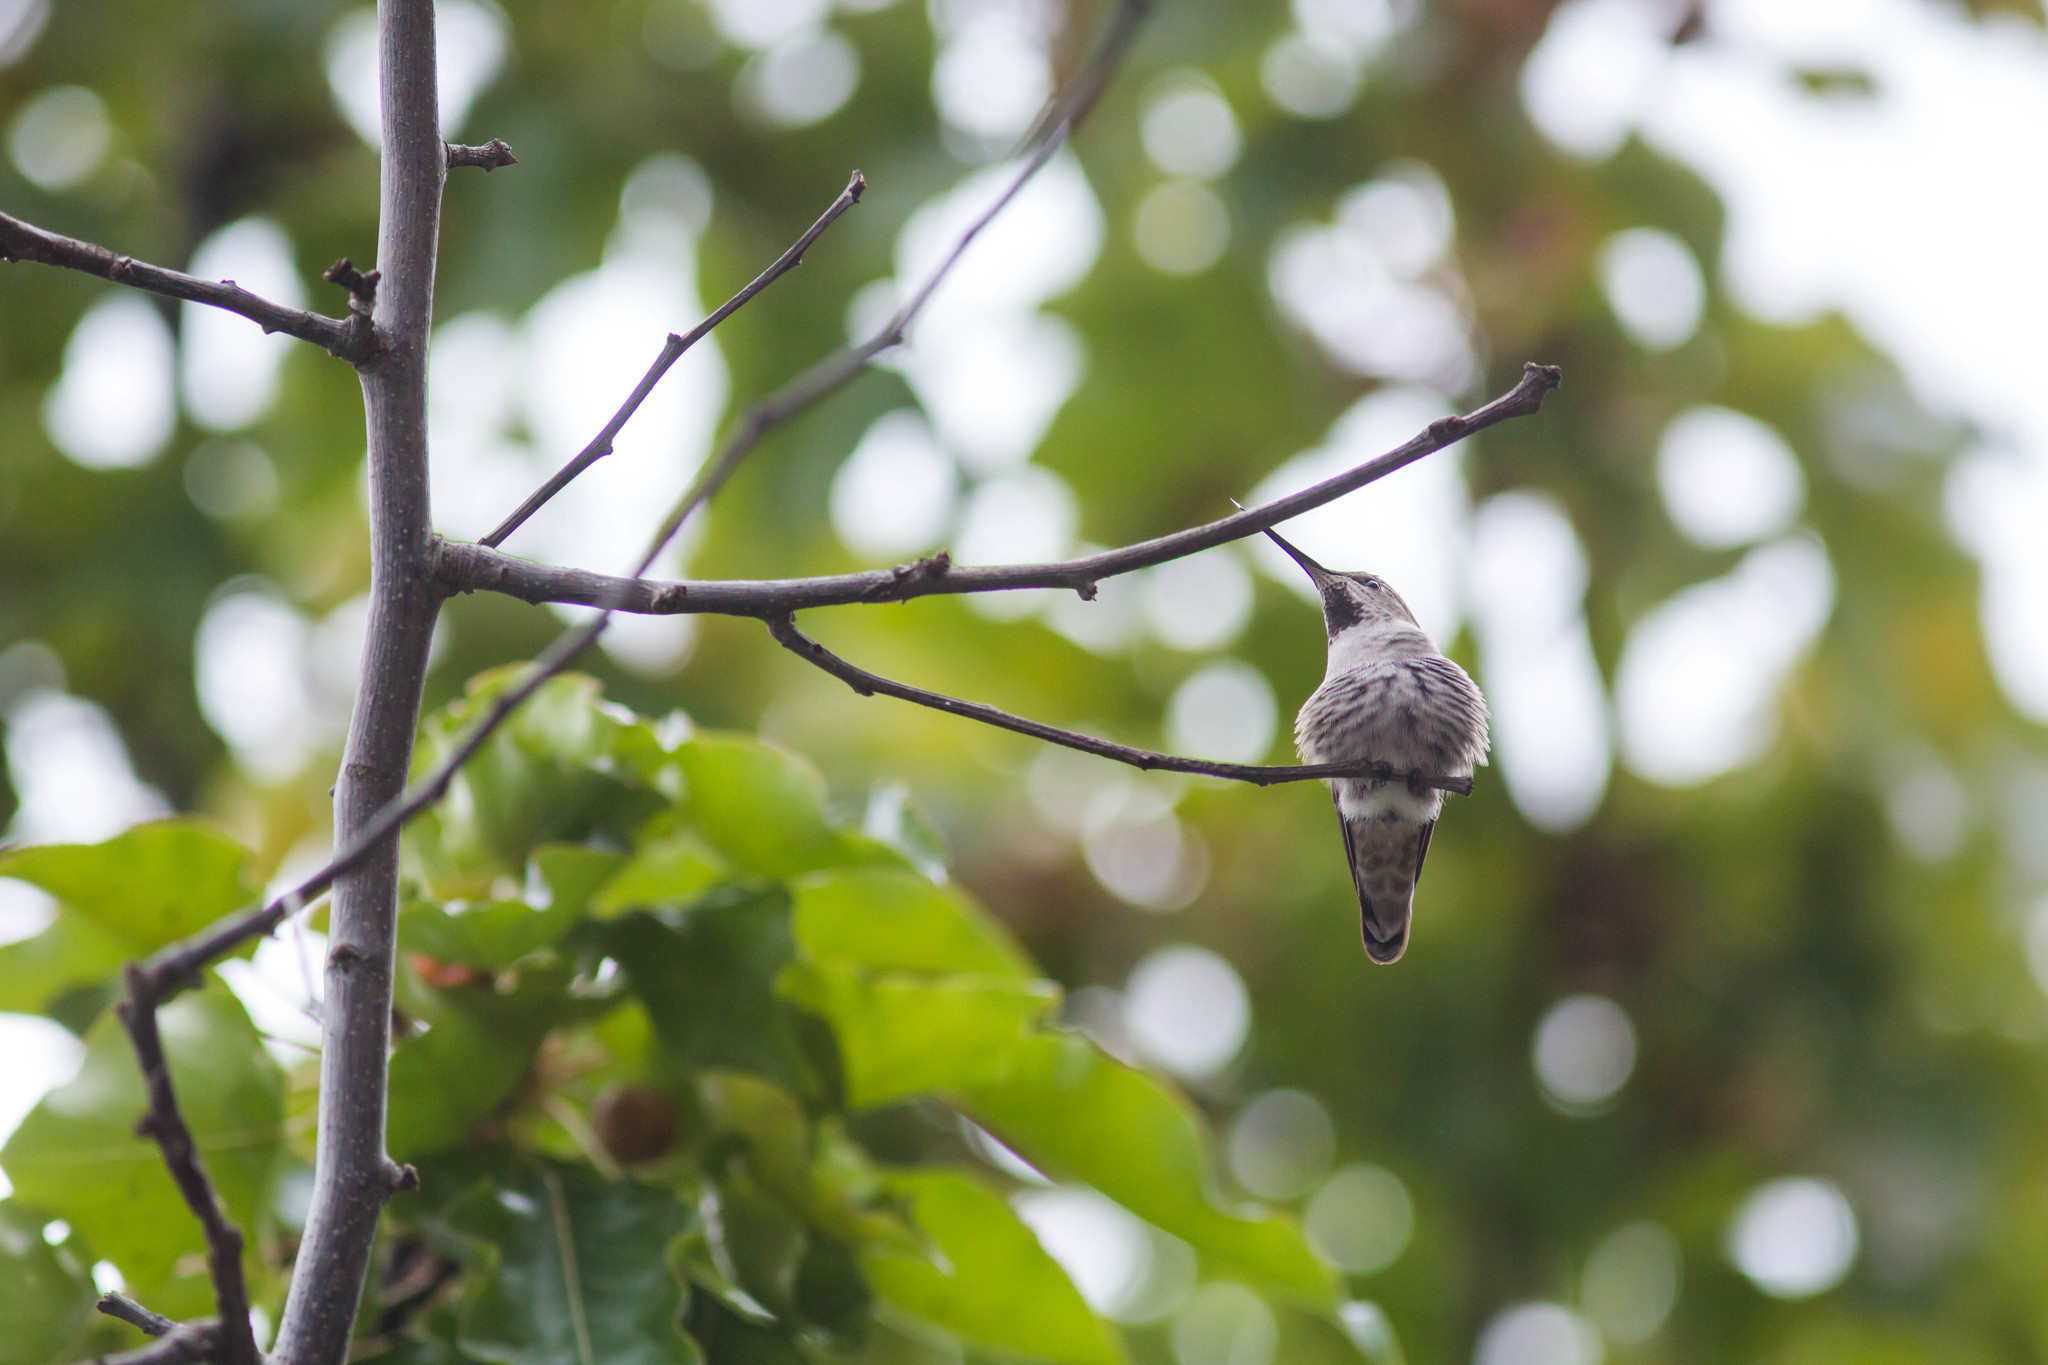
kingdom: Animalia
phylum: Chordata
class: Aves
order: Apodiformes
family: Trochilidae
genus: Calypte
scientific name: Calypte anna
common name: Anna's hummingbird
